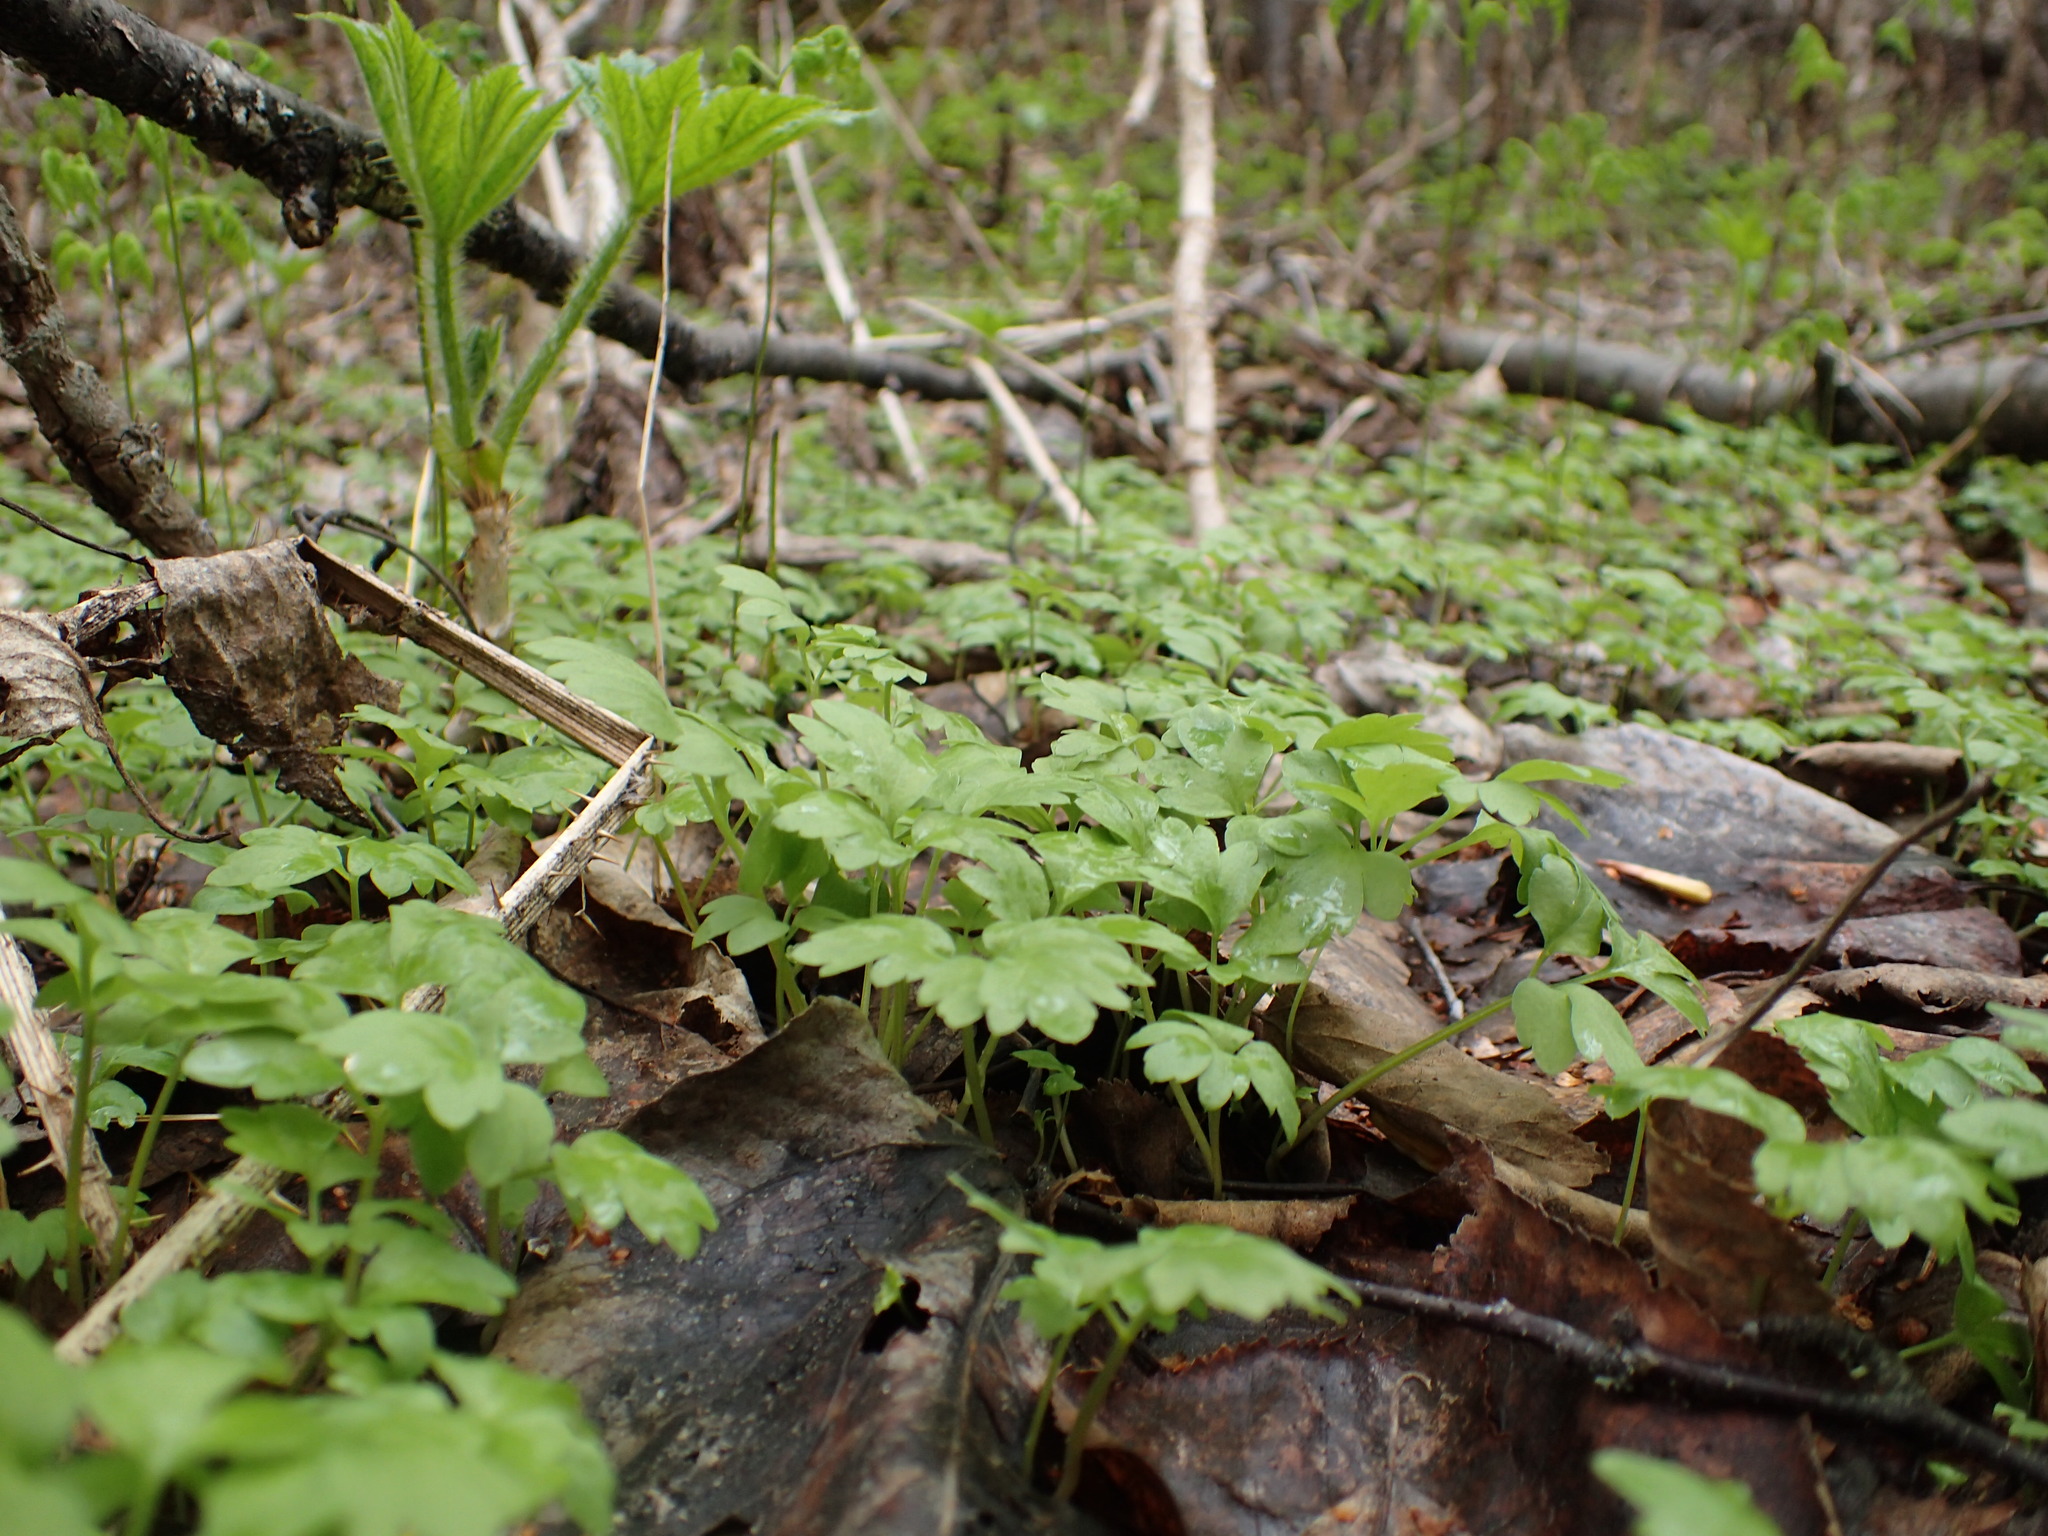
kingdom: Plantae
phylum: Tracheophyta
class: Magnoliopsida
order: Dipsacales
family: Viburnaceae
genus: Adoxa
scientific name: Adoxa moschatellina
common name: Moschatel
